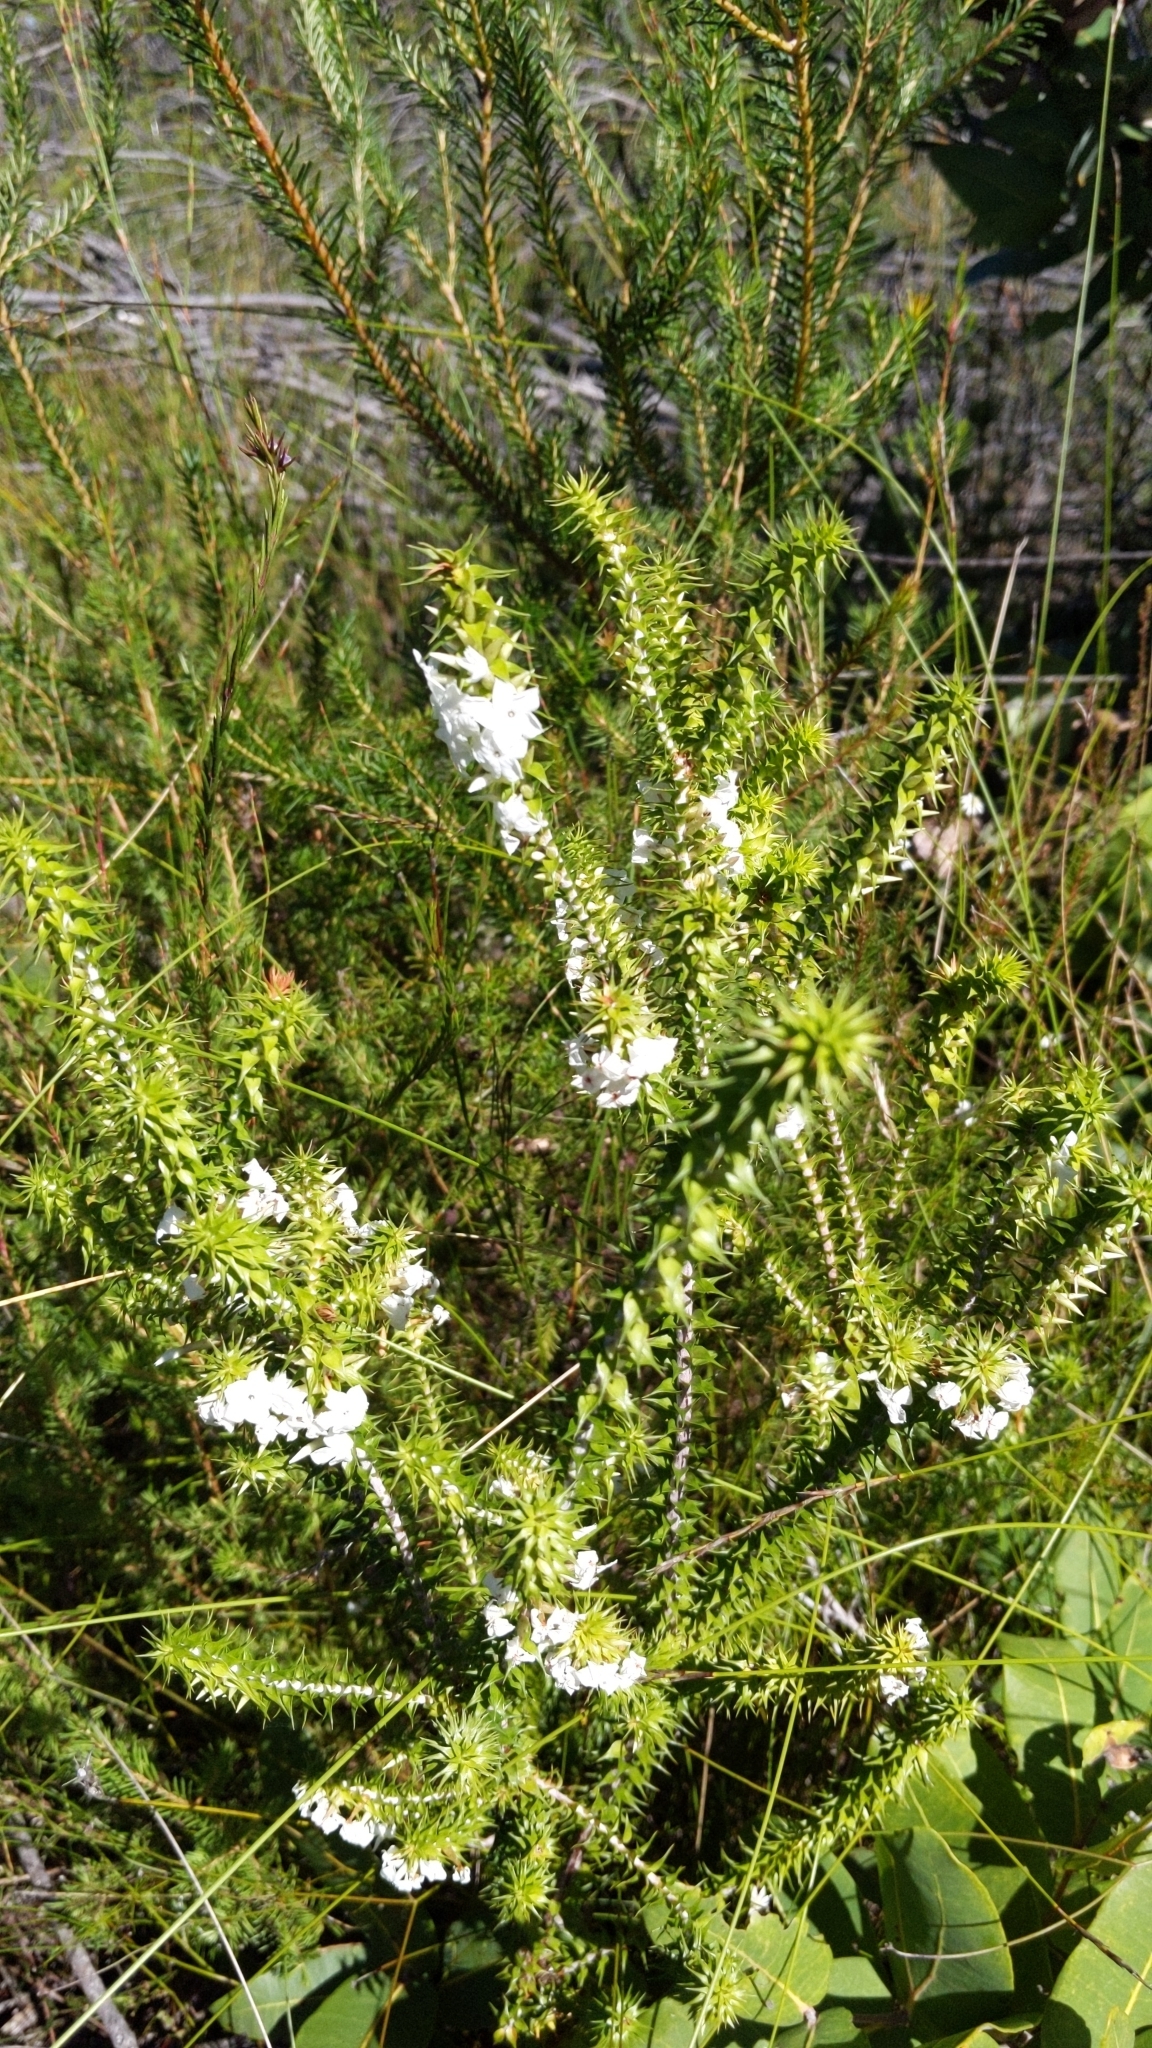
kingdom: Plantae
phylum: Tracheophyta
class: Magnoliopsida
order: Ericales
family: Ericaceae
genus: Woollsia
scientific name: Woollsia pungens
